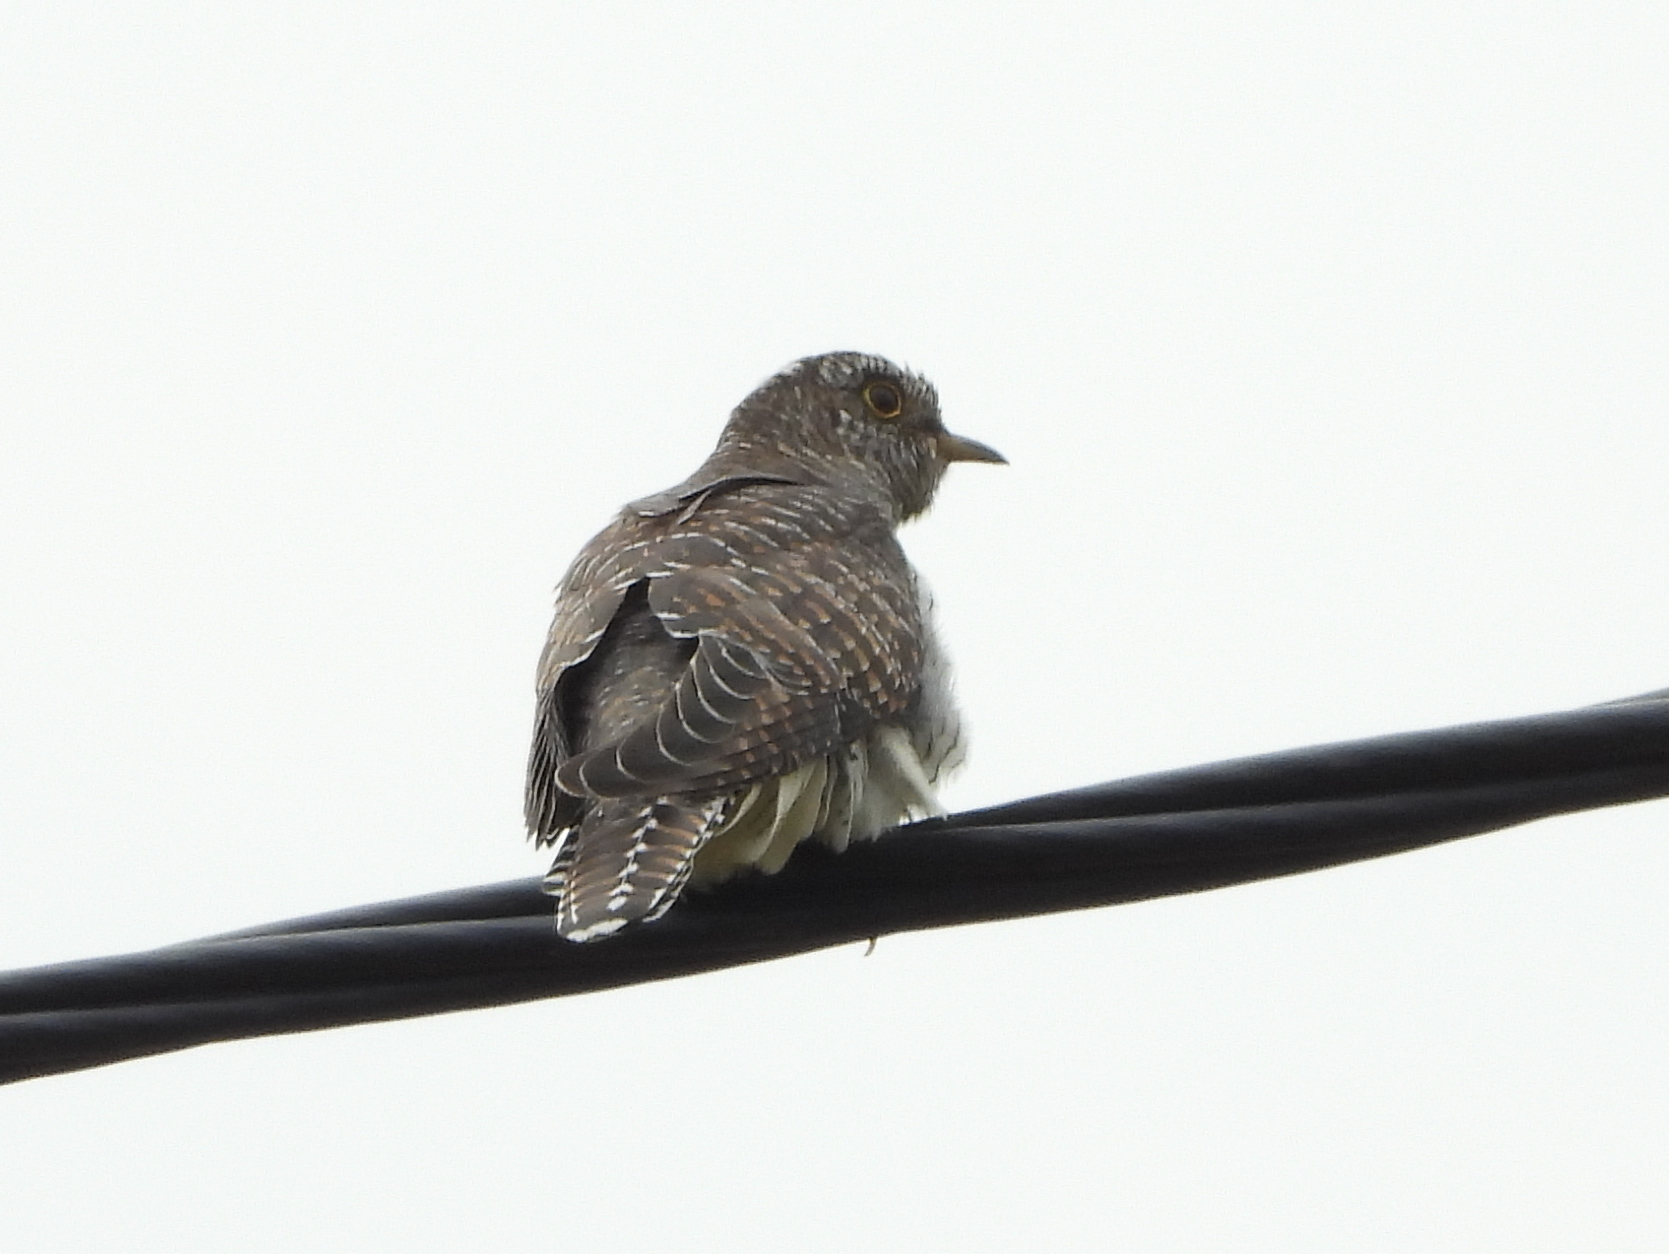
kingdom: Animalia
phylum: Chordata
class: Aves
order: Cuculiformes
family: Cuculidae
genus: Cuculus
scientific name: Cuculus canorus
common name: Common cuckoo
